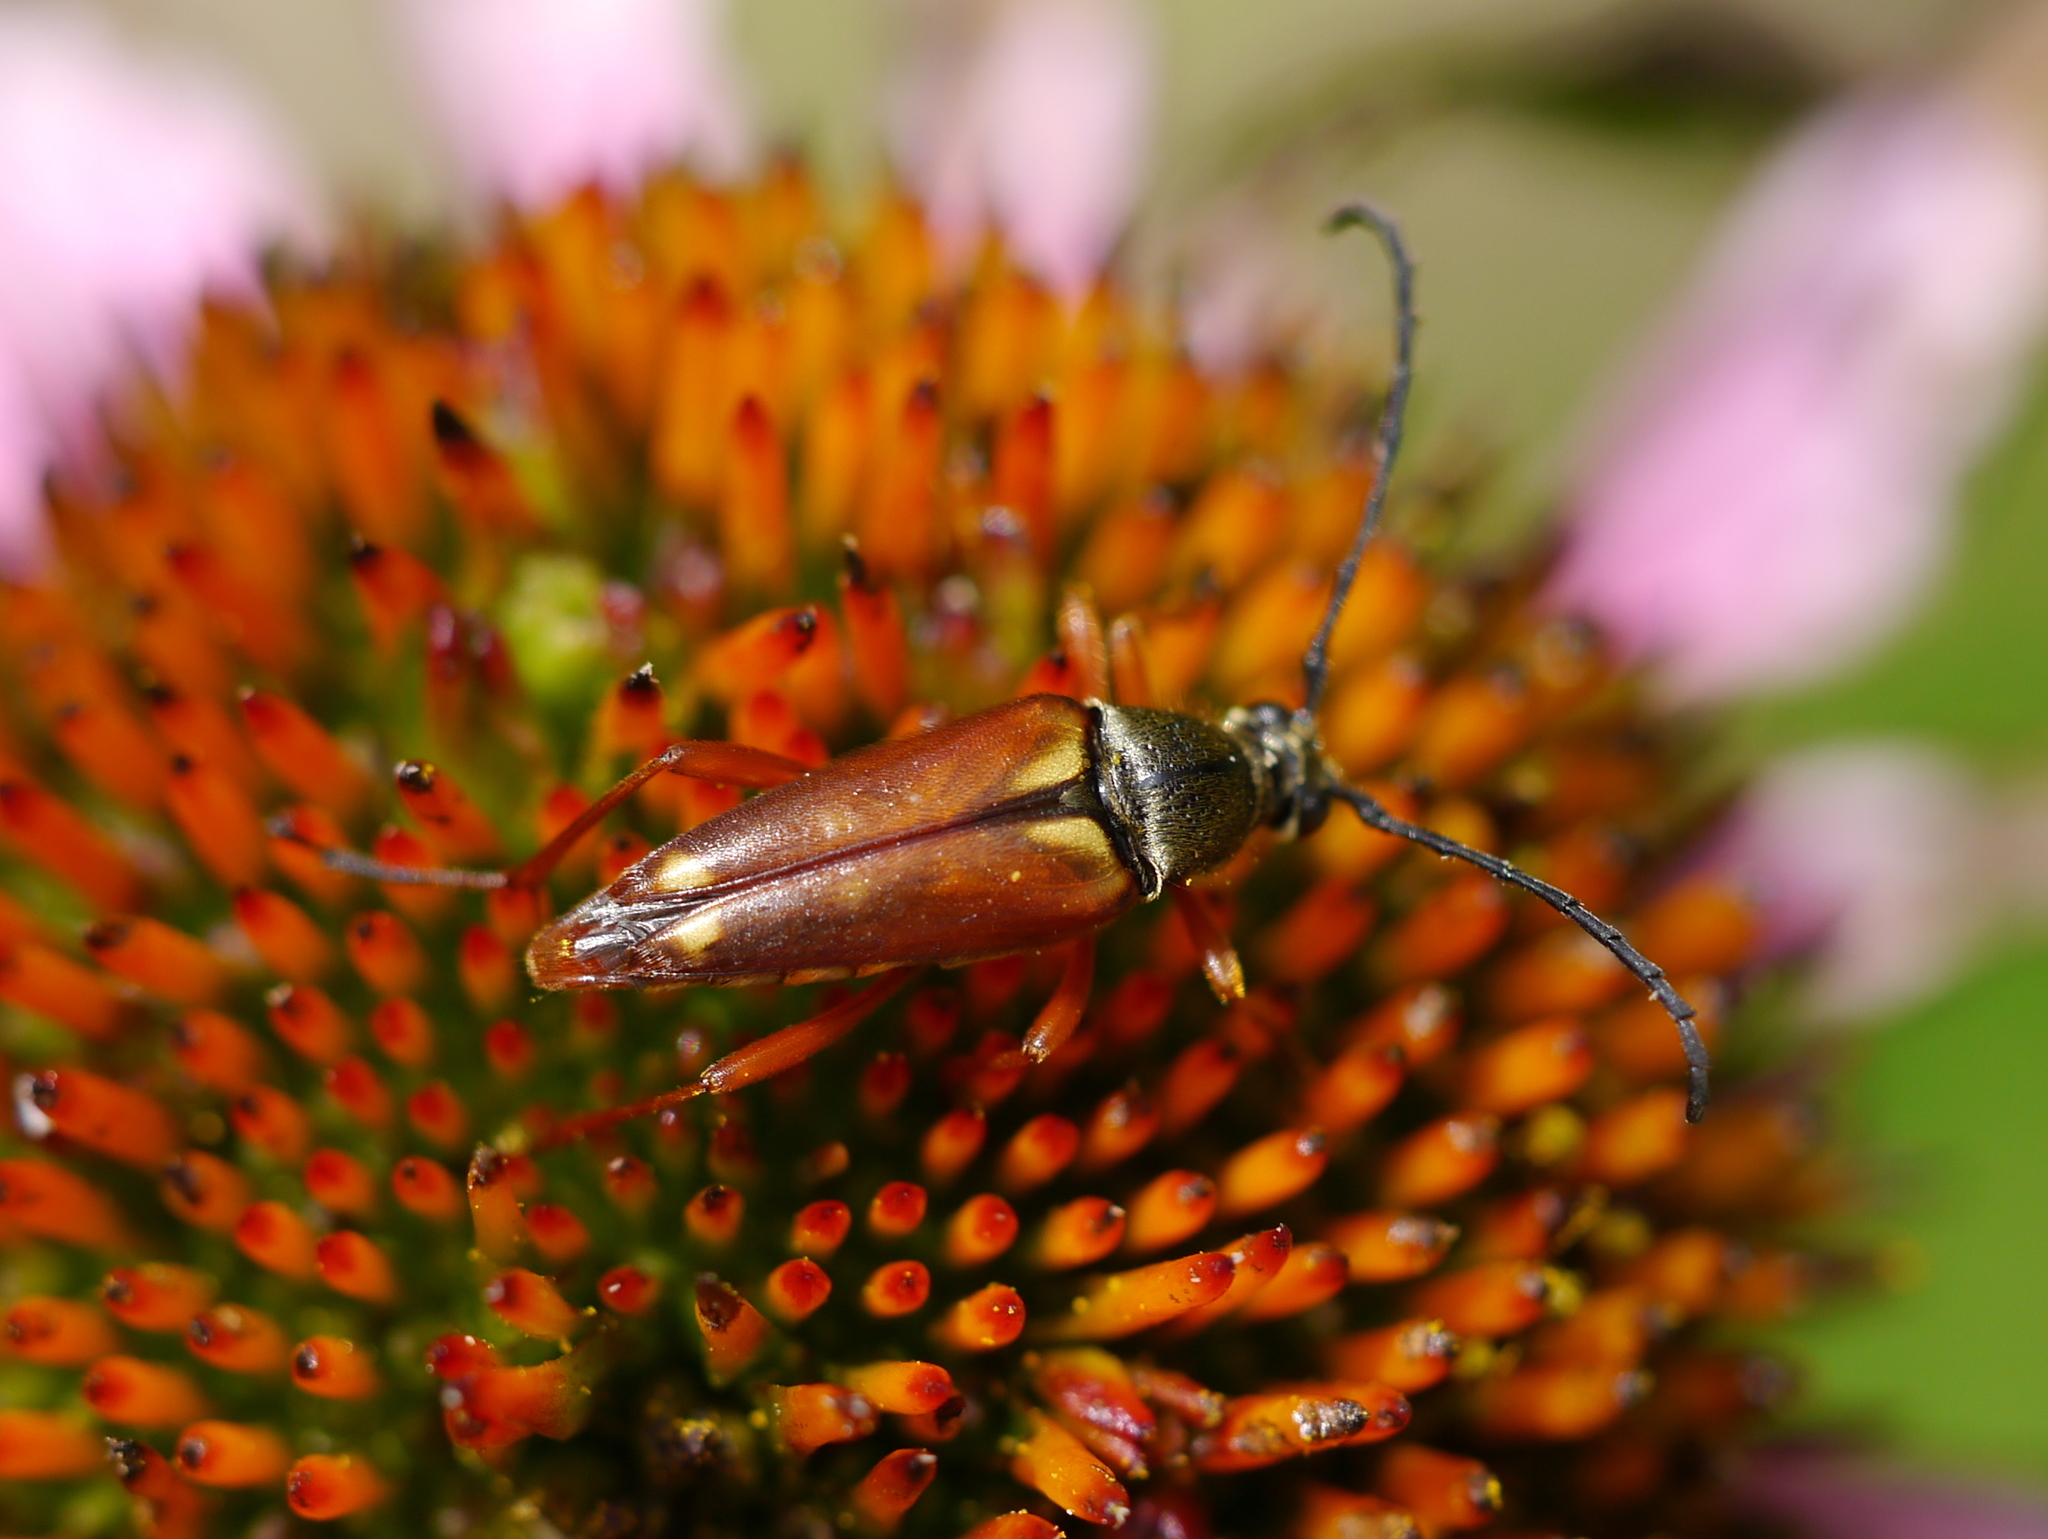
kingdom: Animalia
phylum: Arthropoda
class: Insecta
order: Coleoptera
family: Cerambycidae
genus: Typocerus
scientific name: Typocerus acuticauda
